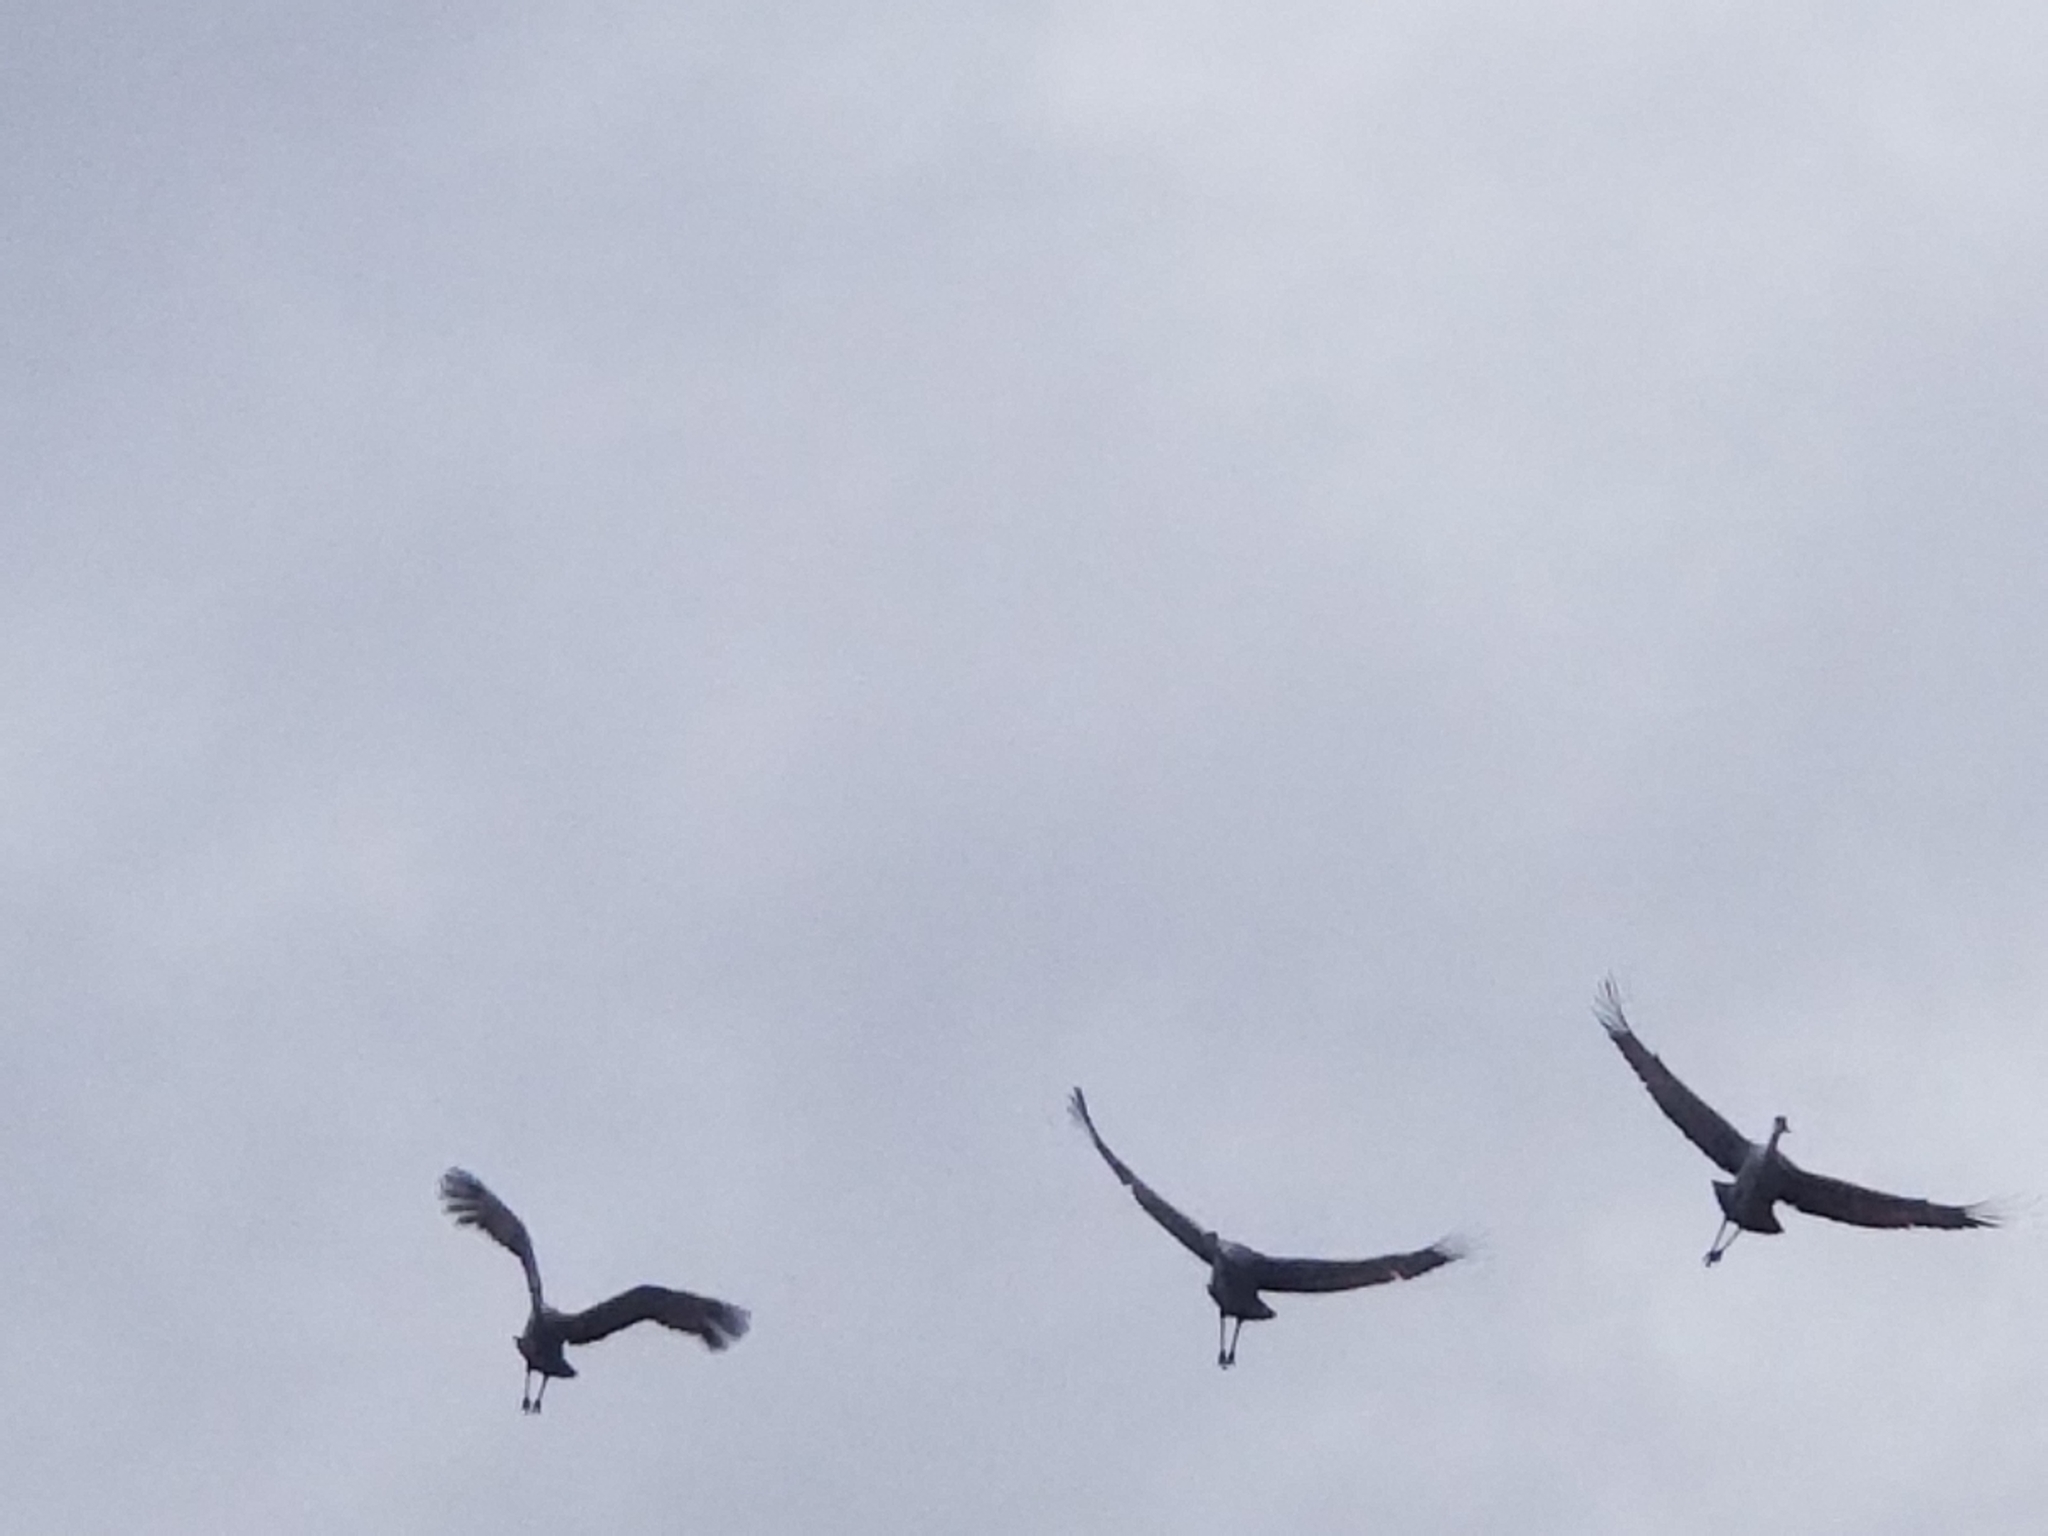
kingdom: Animalia
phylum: Chordata
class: Aves
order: Gruiformes
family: Gruidae
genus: Grus
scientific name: Grus canadensis
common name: Sandhill crane
